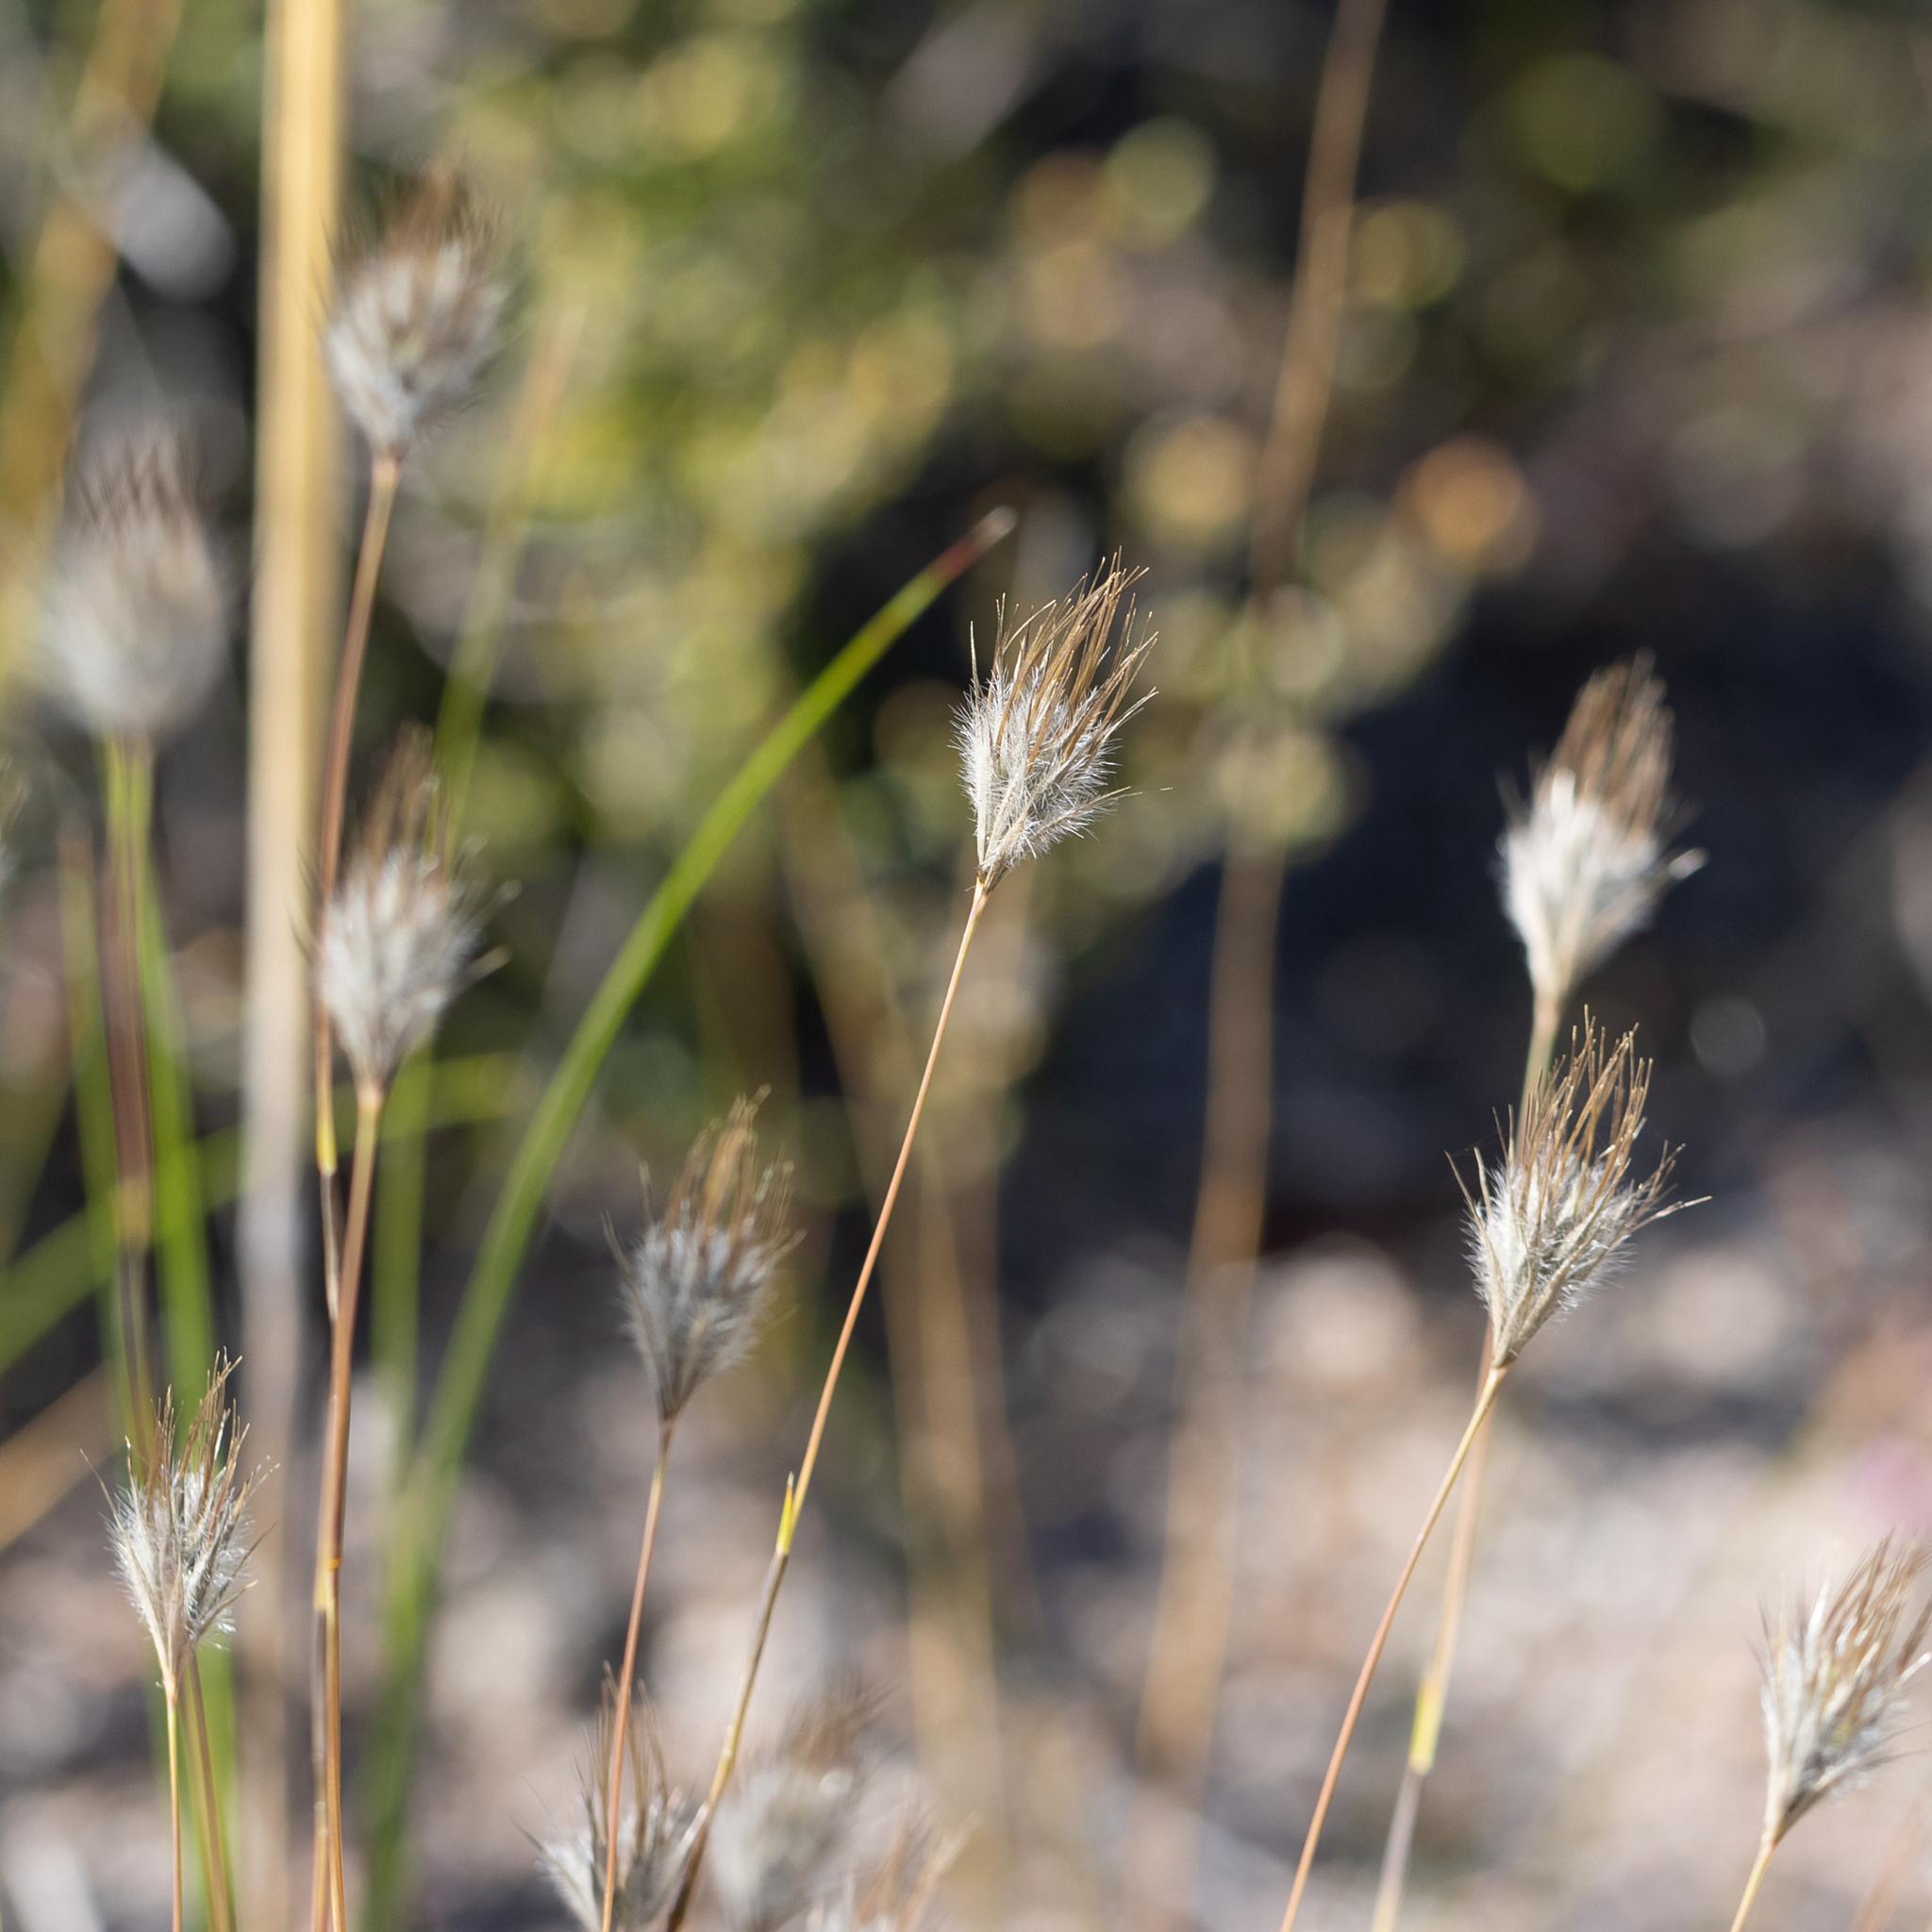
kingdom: Plantae
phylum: Tracheophyta
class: Liliopsida
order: Poales
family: Poaceae
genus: Amphipogon
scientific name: Amphipogon turbinatus
